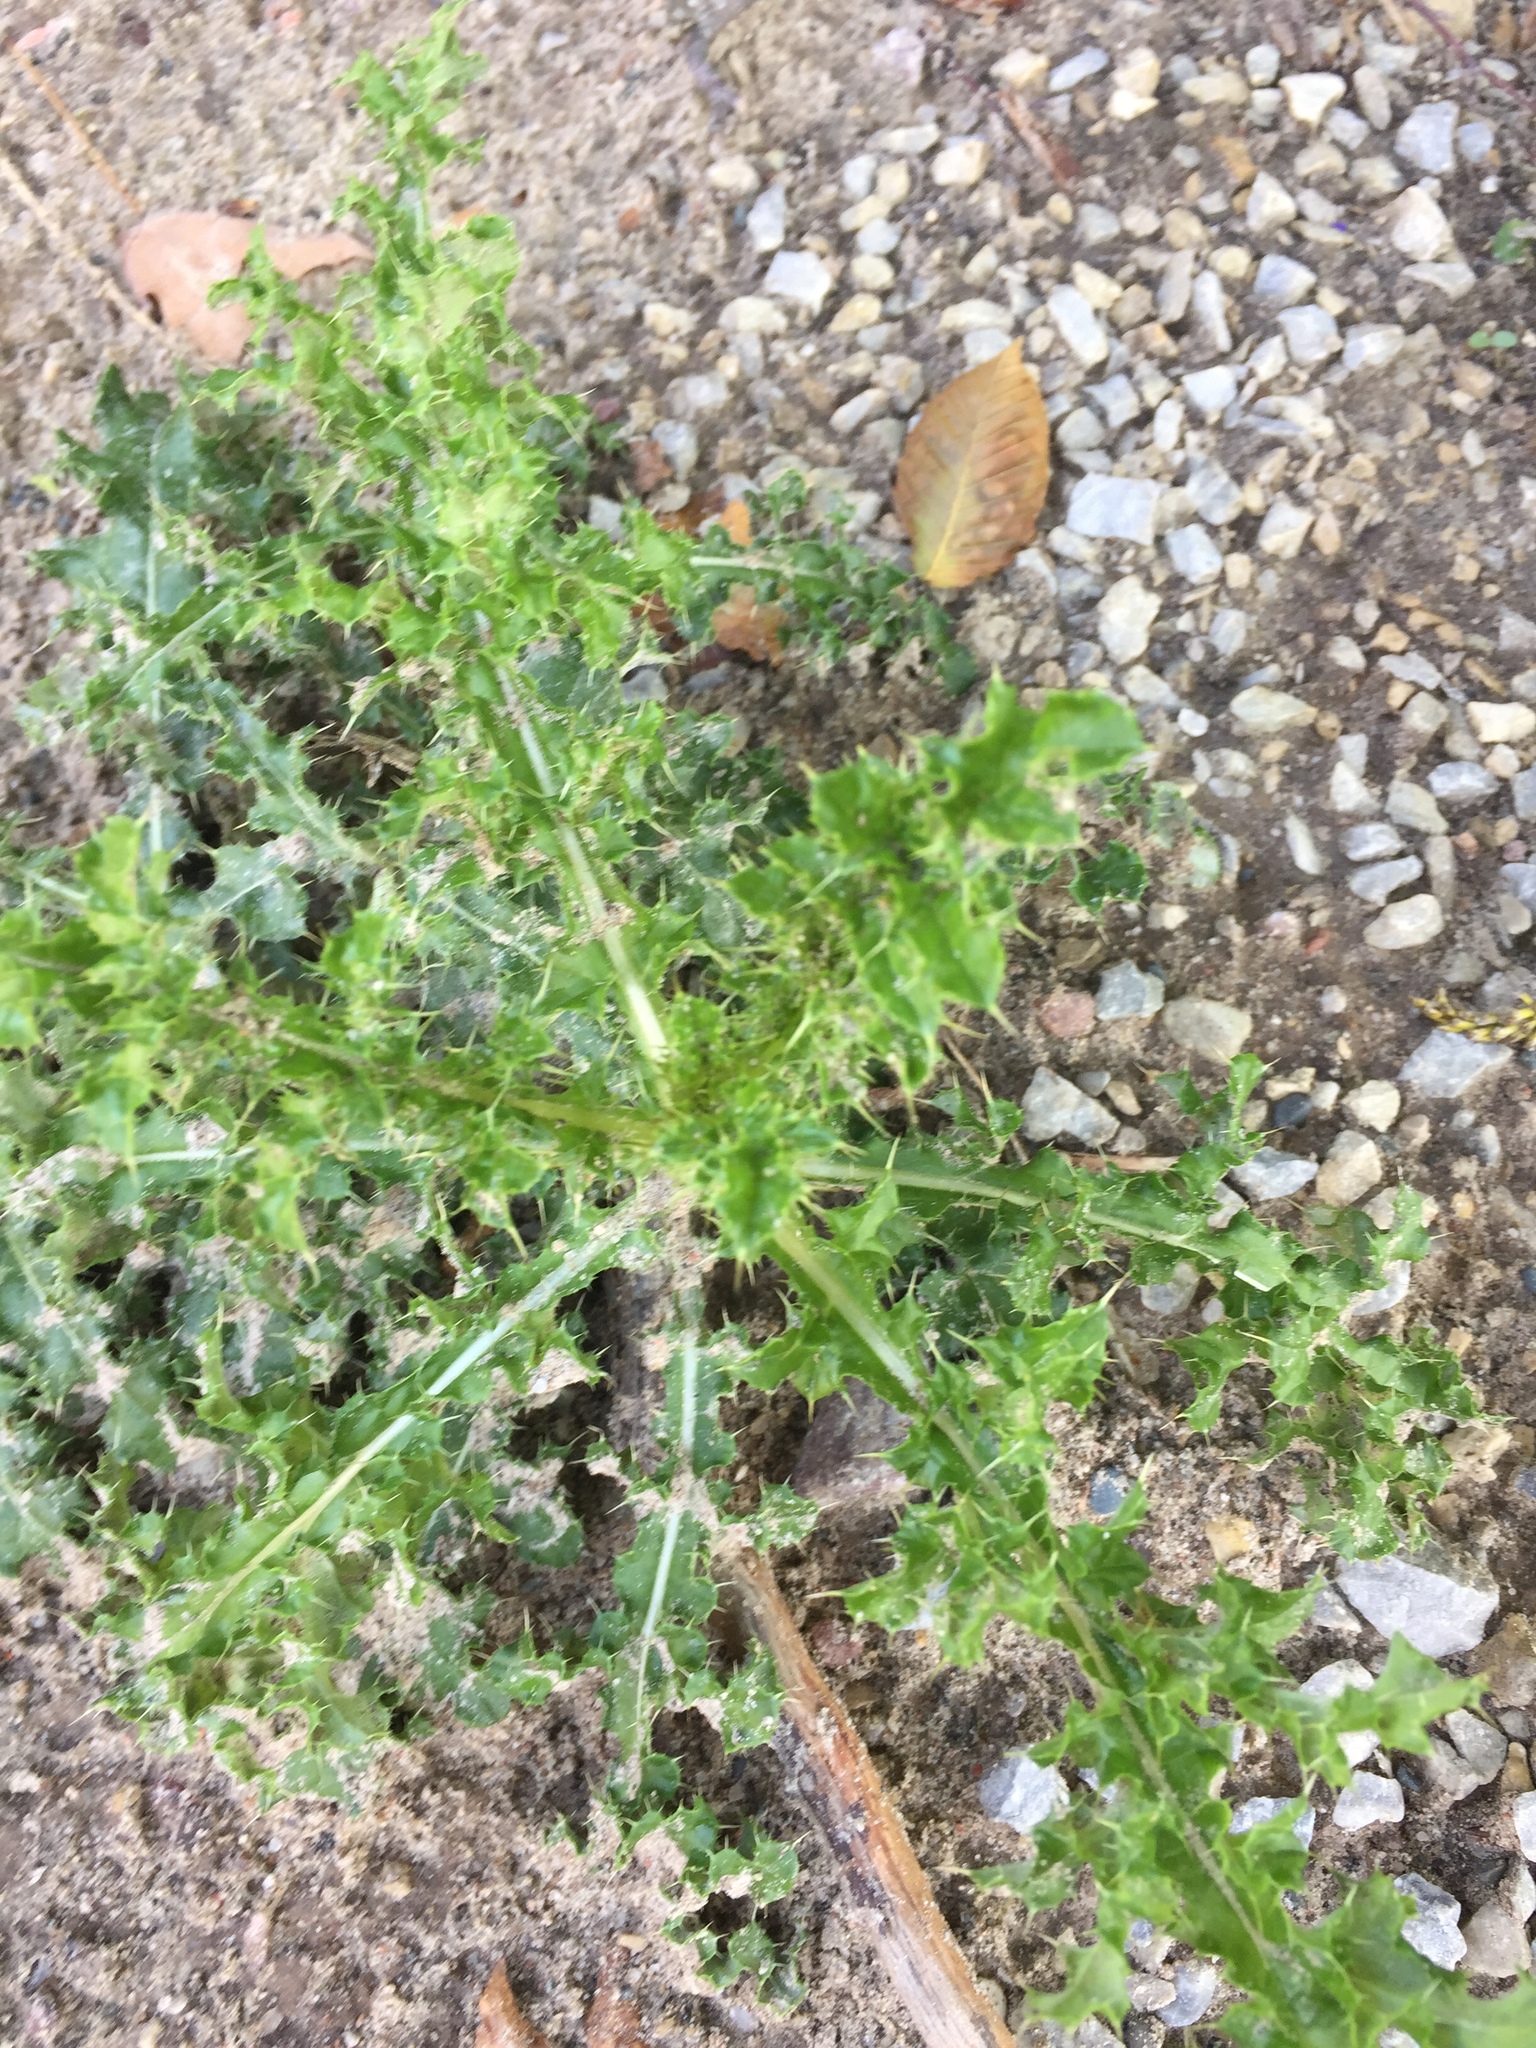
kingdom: Plantae
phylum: Tracheophyta
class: Magnoliopsida
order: Asterales
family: Asteraceae
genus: Cirsium
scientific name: Cirsium arvense
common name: Creeping thistle
